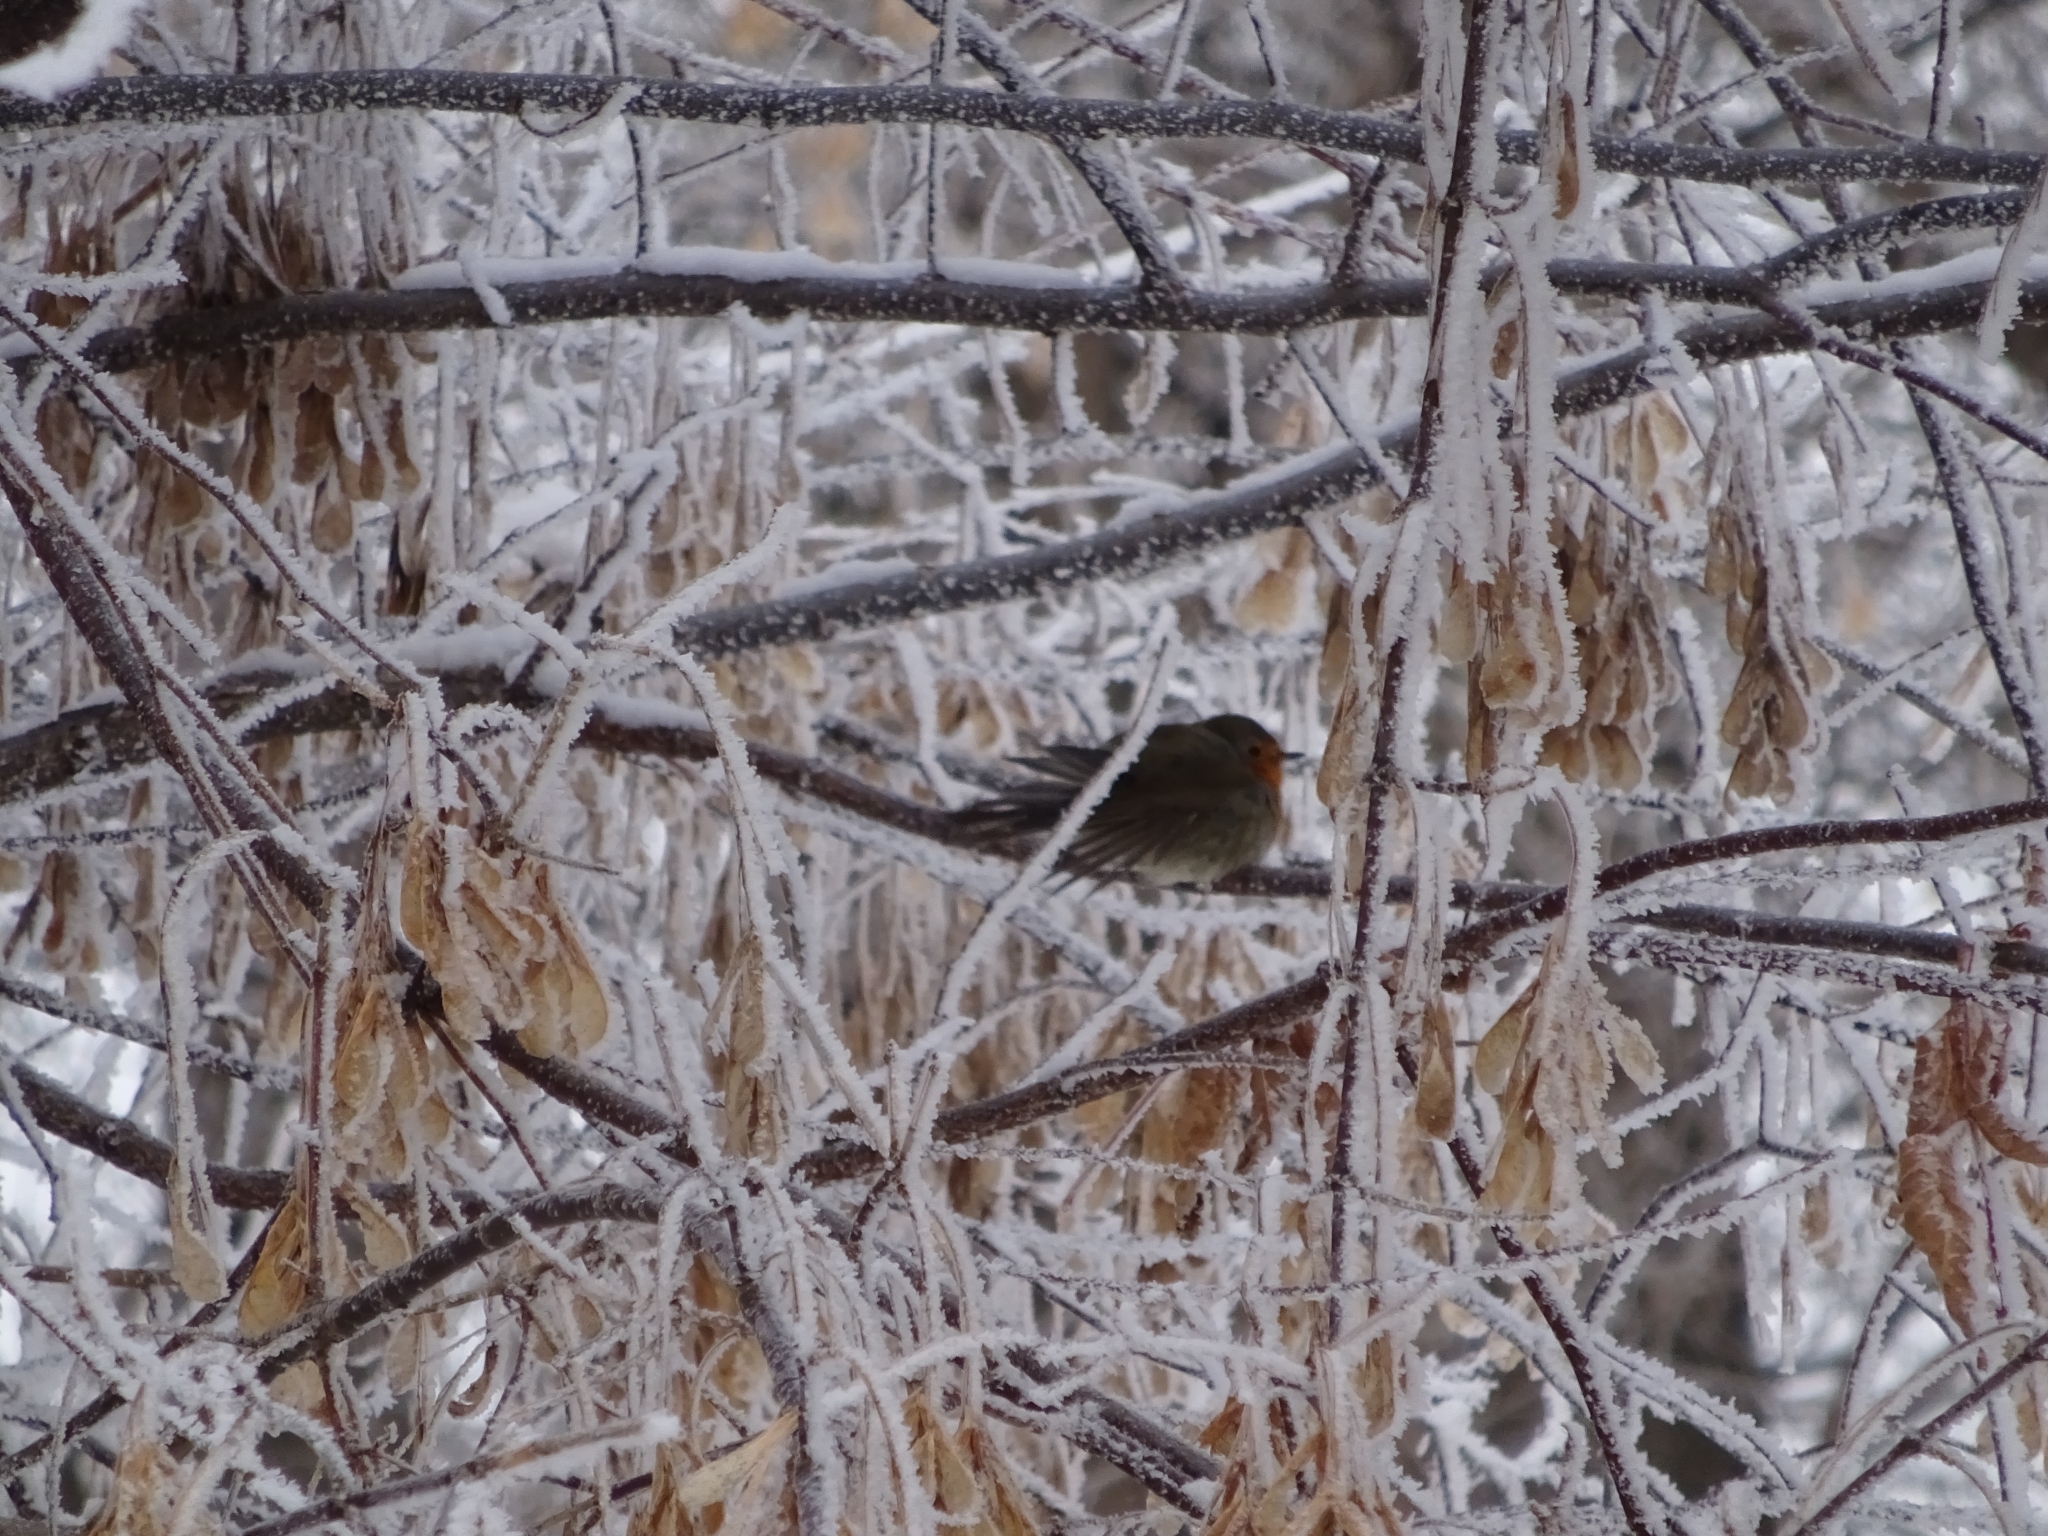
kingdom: Animalia
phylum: Chordata
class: Aves
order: Passeriformes
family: Muscicapidae
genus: Erithacus
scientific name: Erithacus rubecula
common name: European robin
